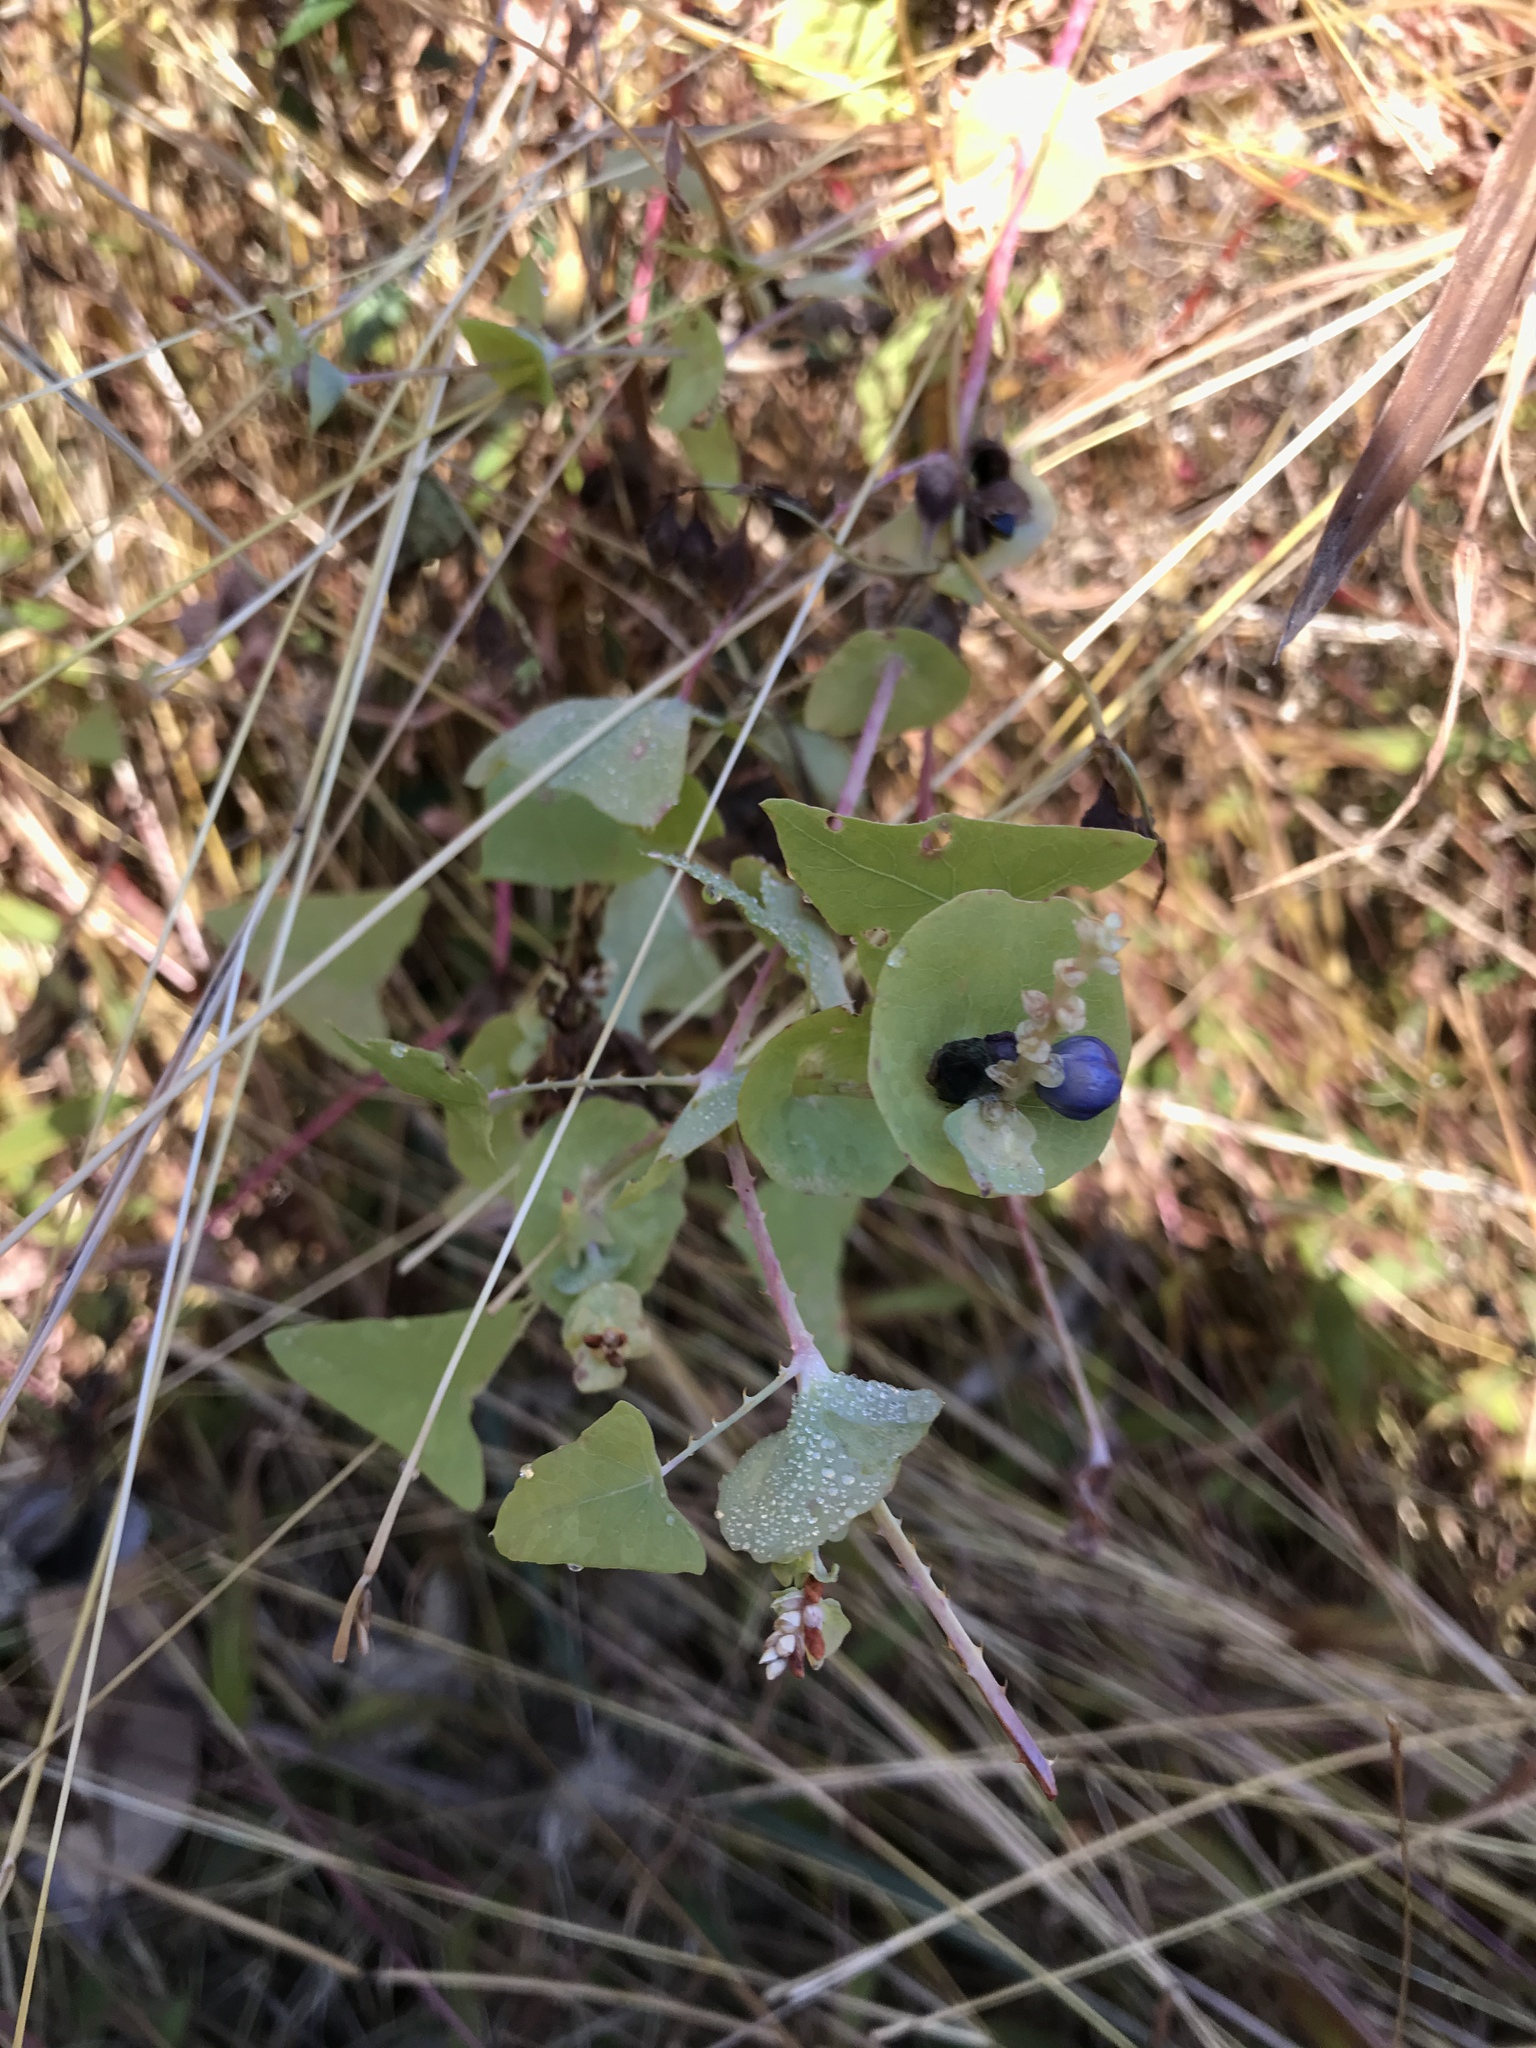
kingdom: Plantae
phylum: Tracheophyta
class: Magnoliopsida
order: Caryophyllales
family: Polygonaceae
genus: Persicaria
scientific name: Persicaria perfoliata
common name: Asiatic tearthumb
